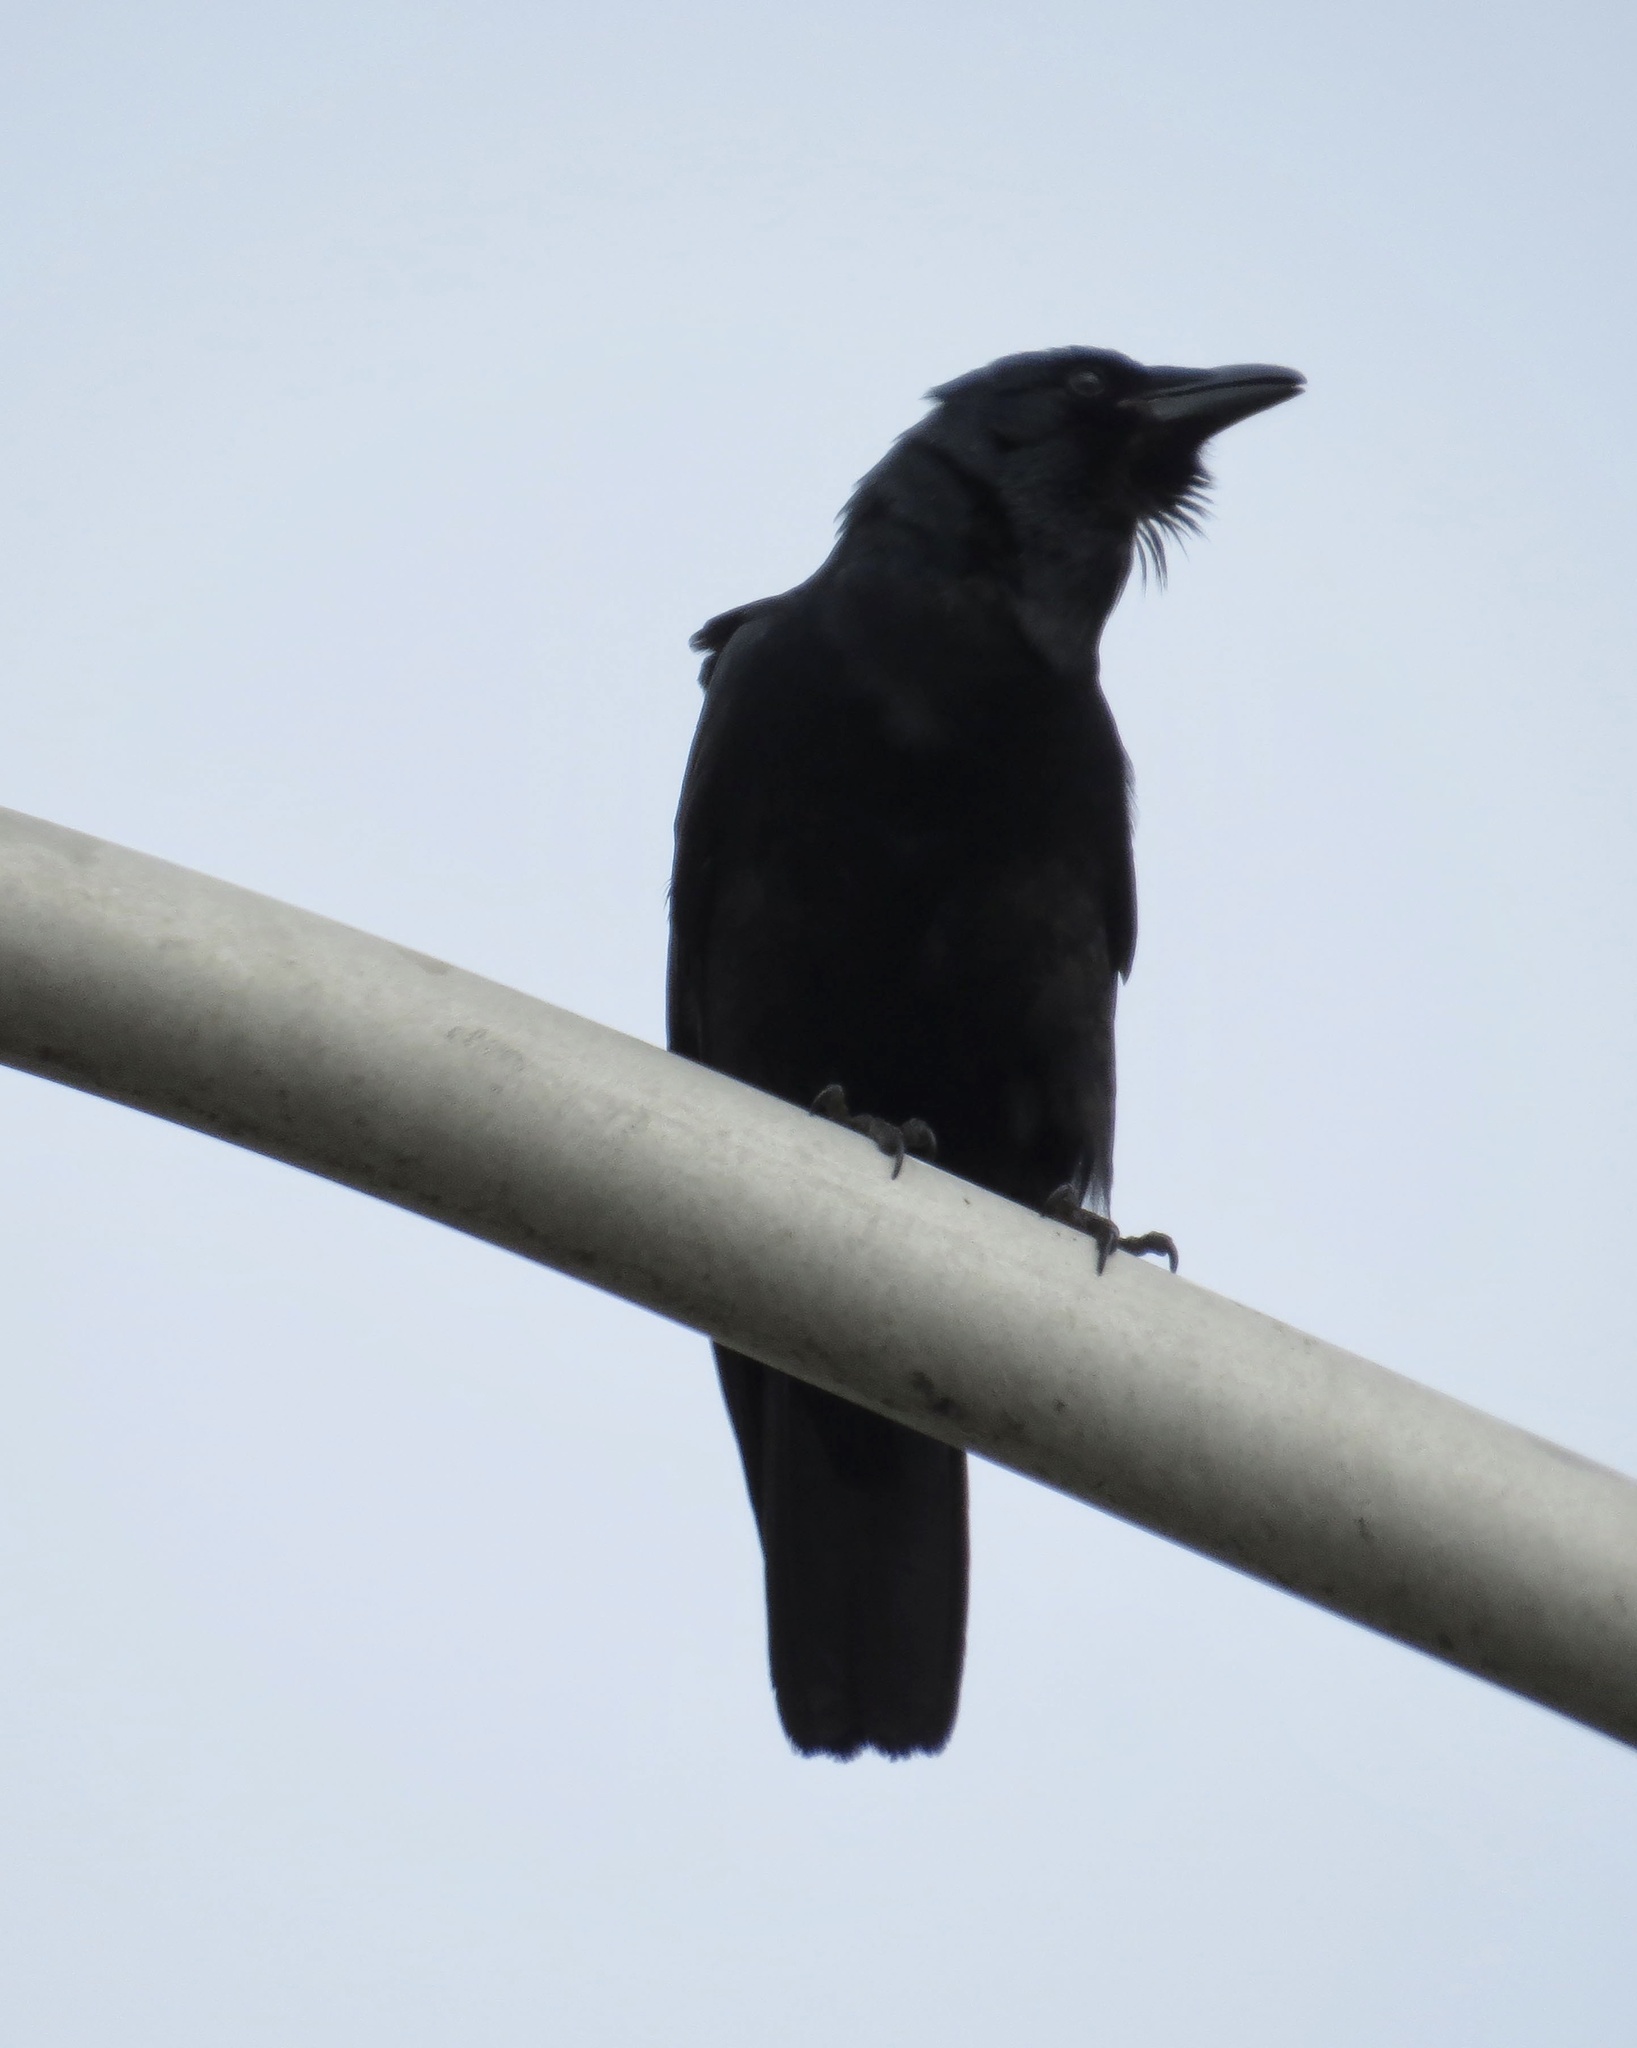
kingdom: Animalia
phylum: Chordata
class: Aves
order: Passeriformes
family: Corvidae
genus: Corvus
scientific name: Corvus brachyrhynchos
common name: American crow
